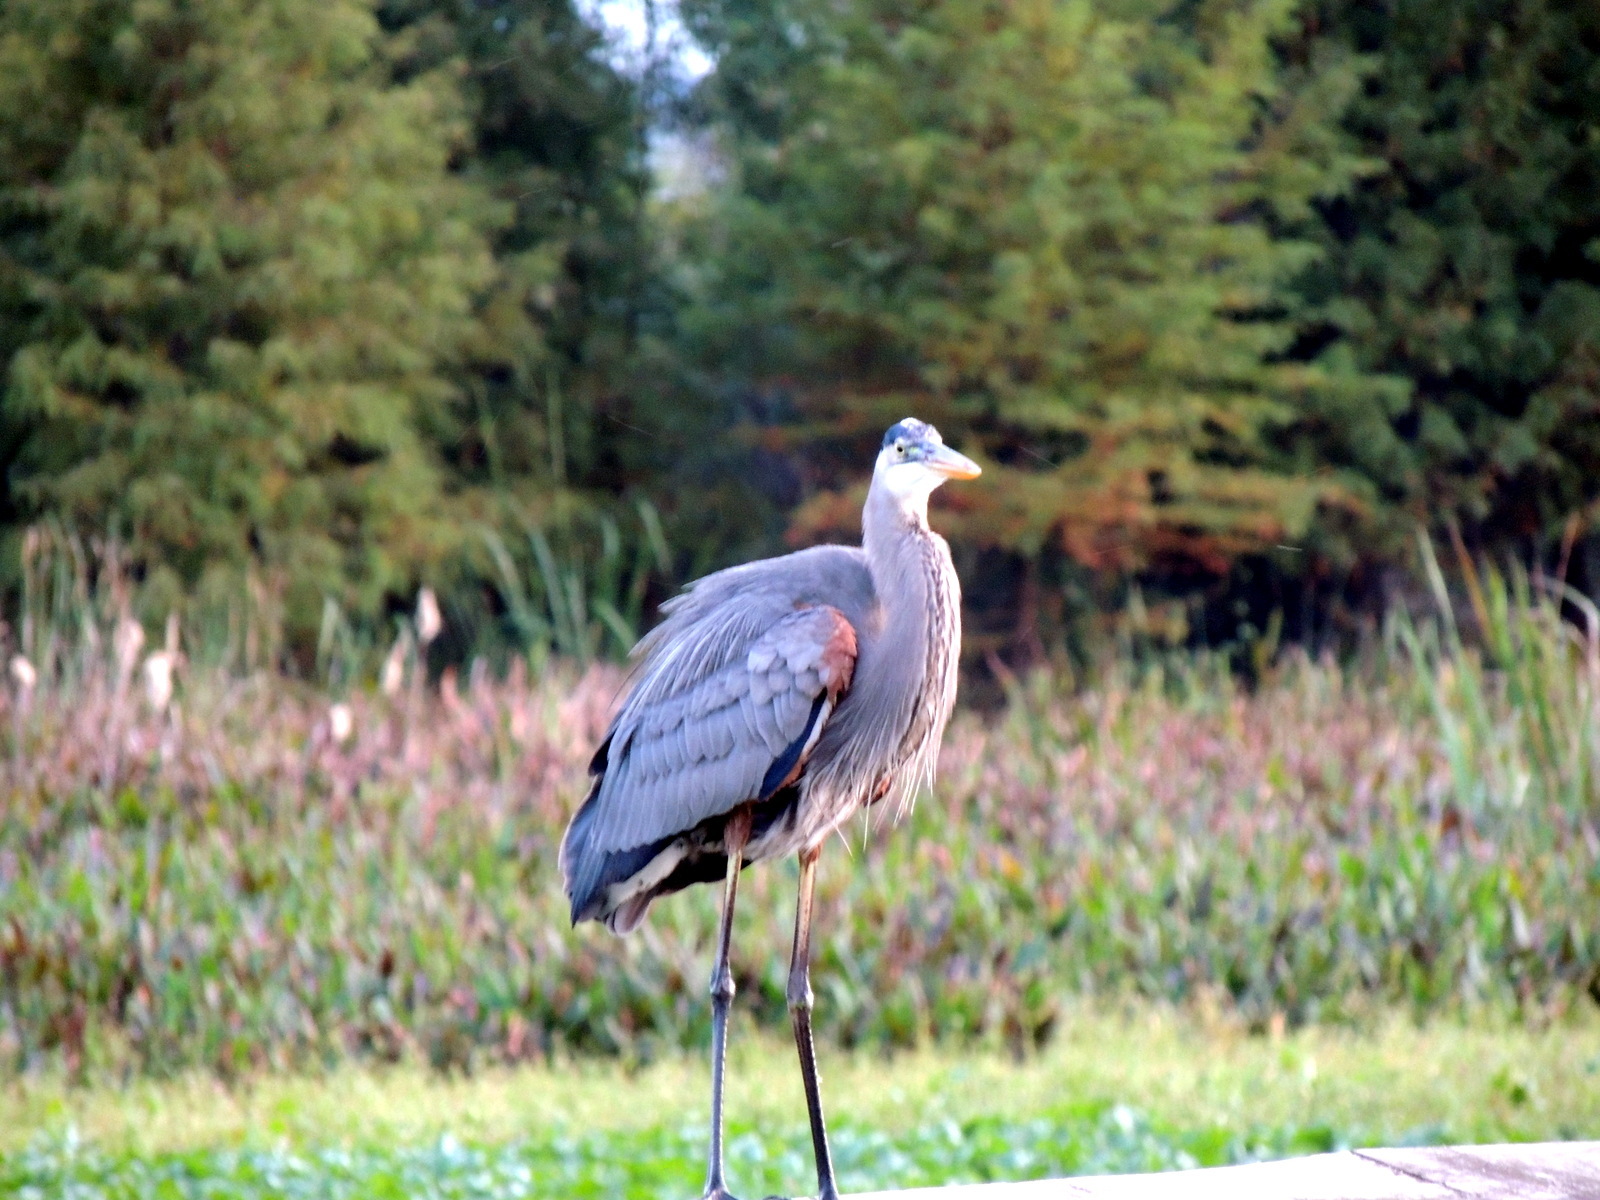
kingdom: Animalia
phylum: Chordata
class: Aves
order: Pelecaniformes
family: Ardeidae
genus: Ardea
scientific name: Ardea herodias
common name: Great blue heron
